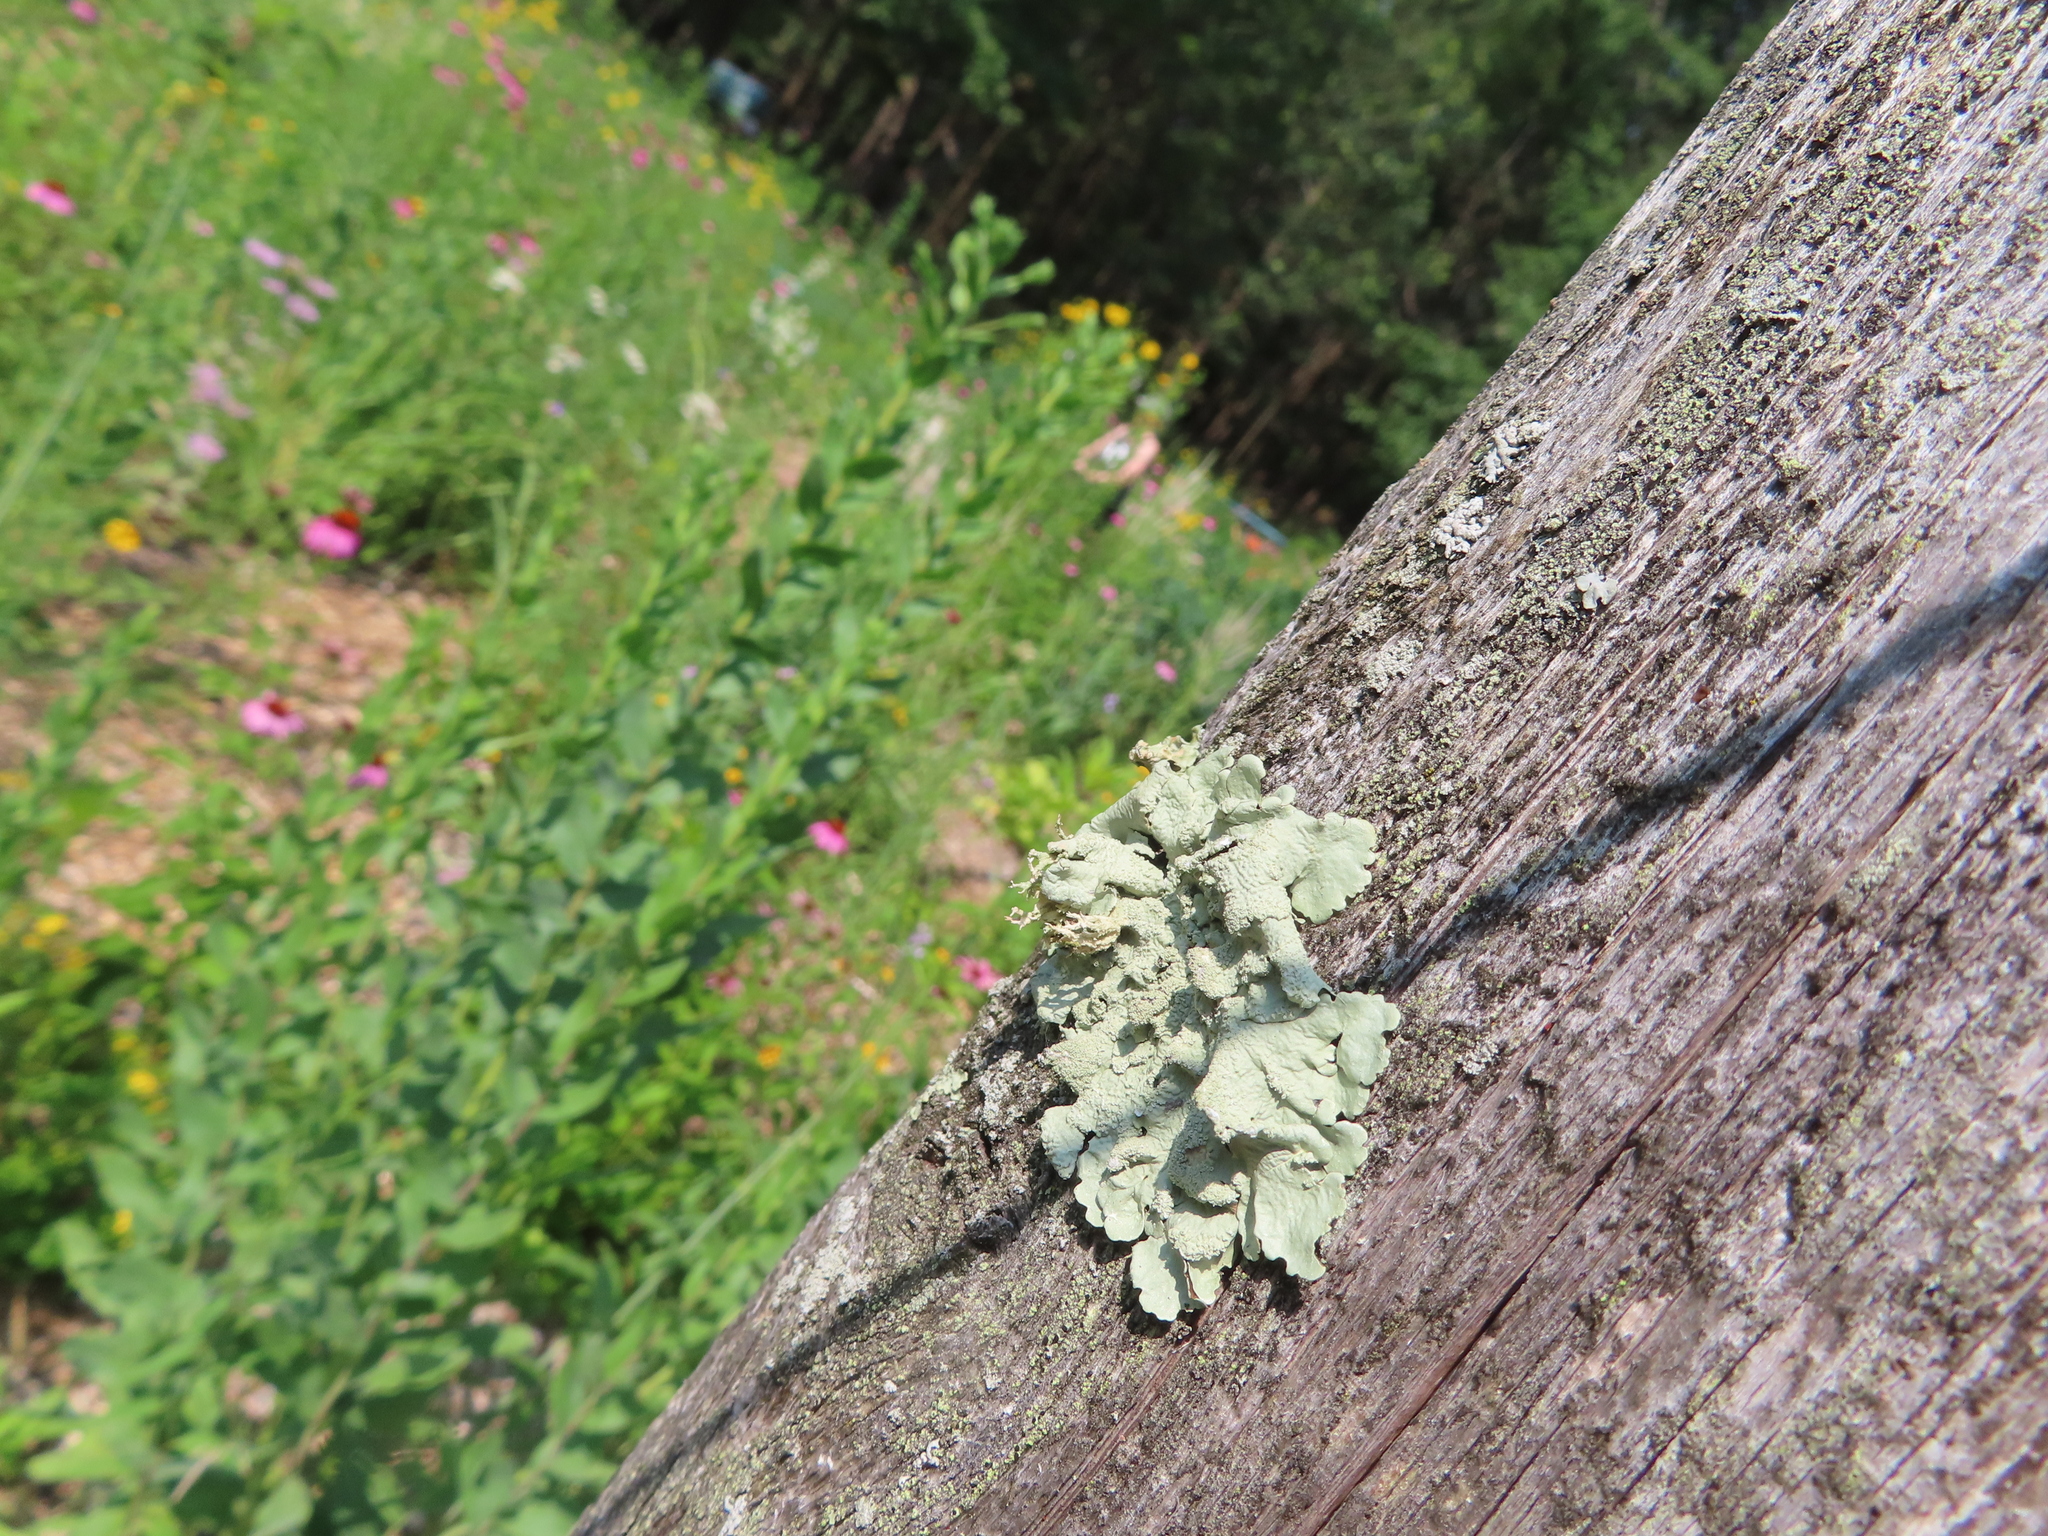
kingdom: Fungi
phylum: Ascomycota
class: Lecanoromycetes
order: Lecanorales
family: Parmeliaceae
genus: Flavoparmelia
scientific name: Flavoparmelia caperata
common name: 40-mile per hour lichen
